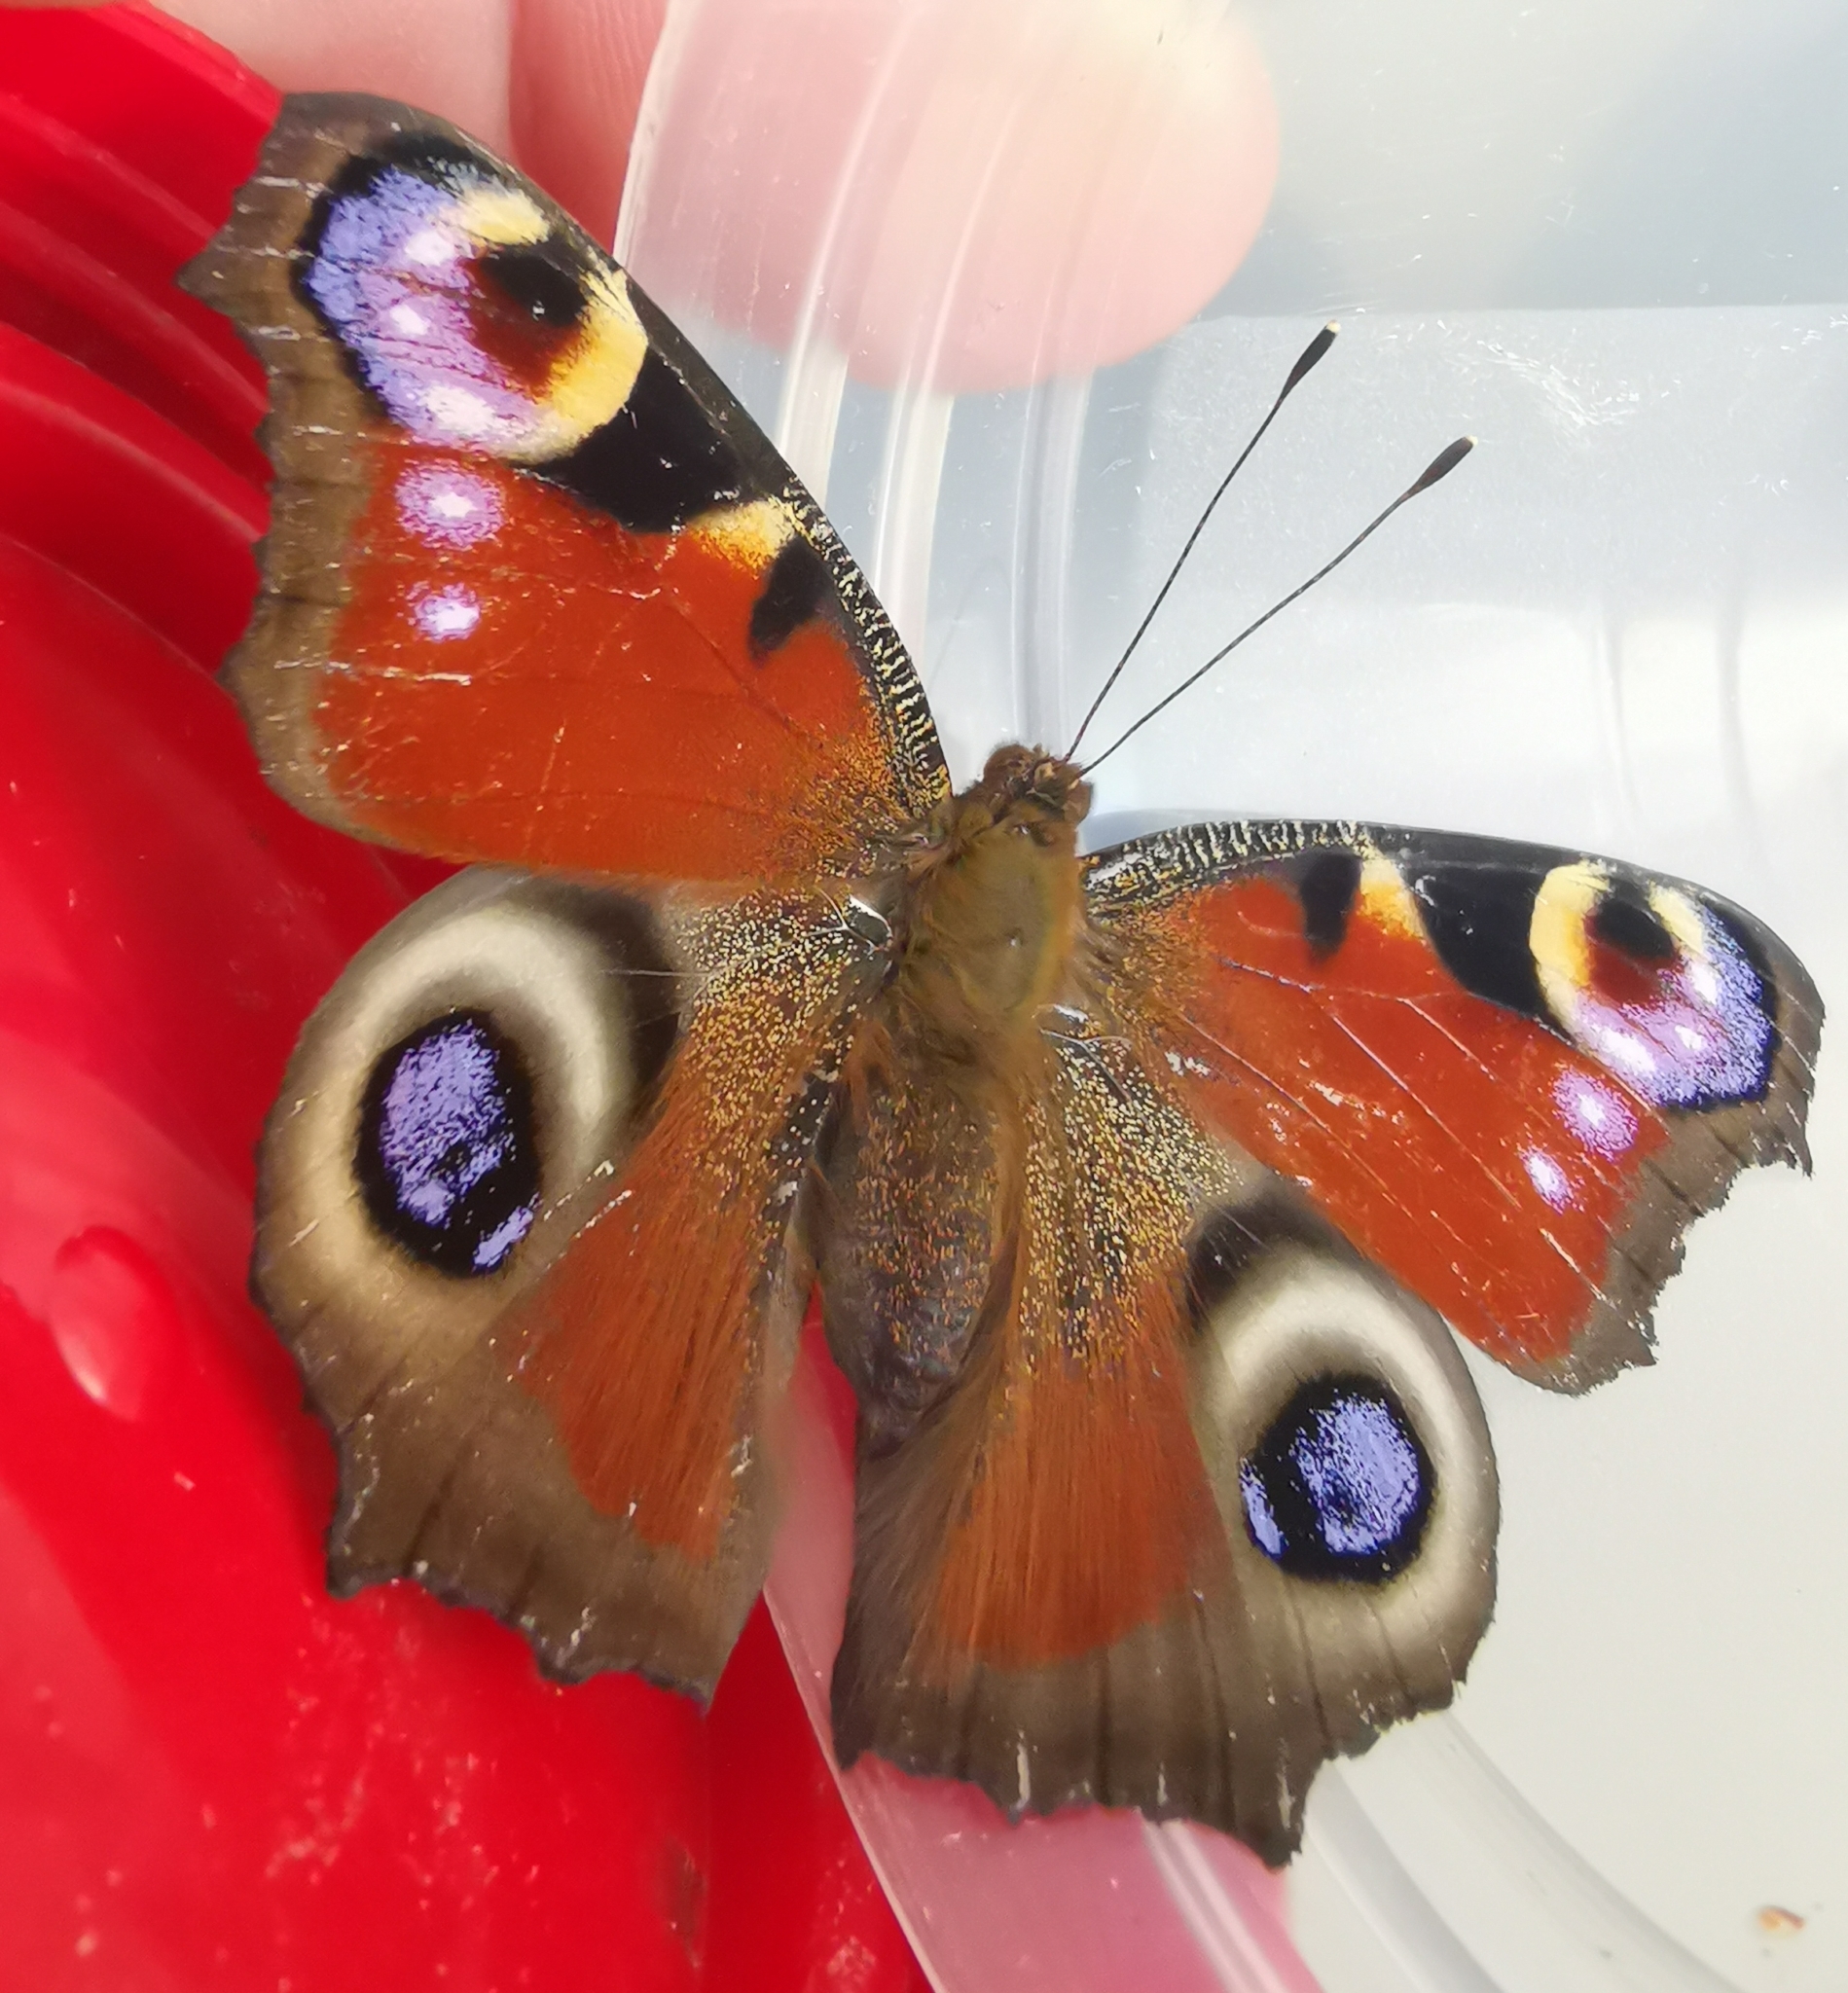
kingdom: Animalia
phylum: Arthropoda
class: Insecta
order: Lepidoptera
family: Nymphalidae
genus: Aglais
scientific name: Aglais io
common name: Peacock
